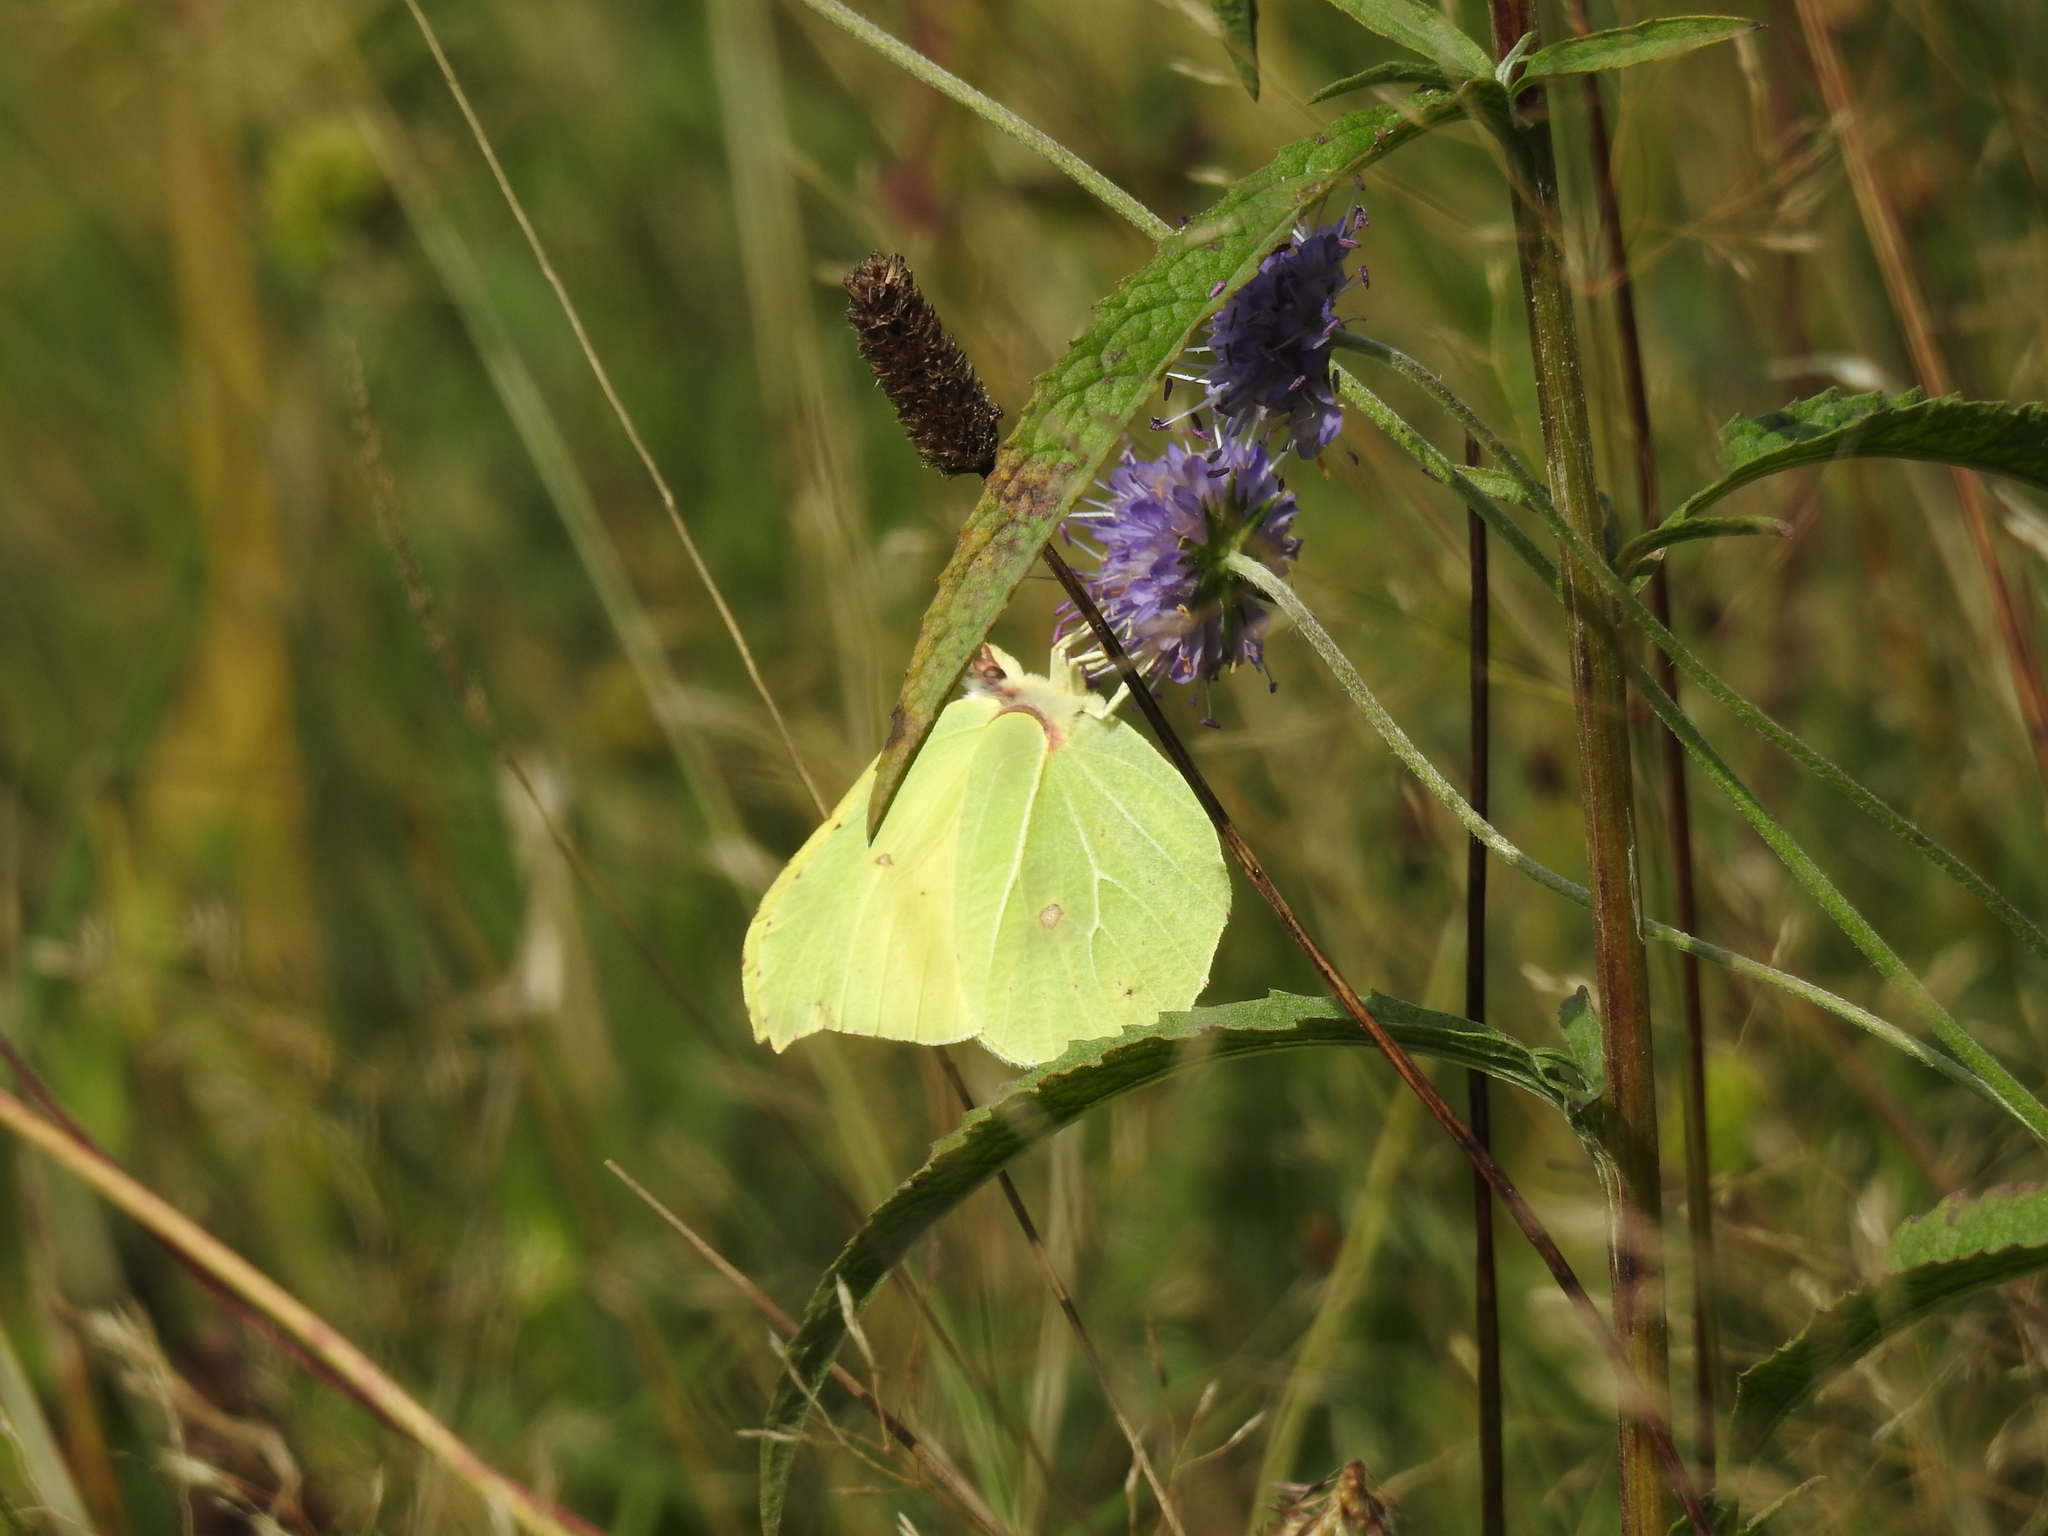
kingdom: Animalia
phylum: Arthropoda
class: Insecta
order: Lepidoptera
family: Pieridae
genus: Gonepteryx
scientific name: Gonepteryx rhamni
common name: Brimstone
